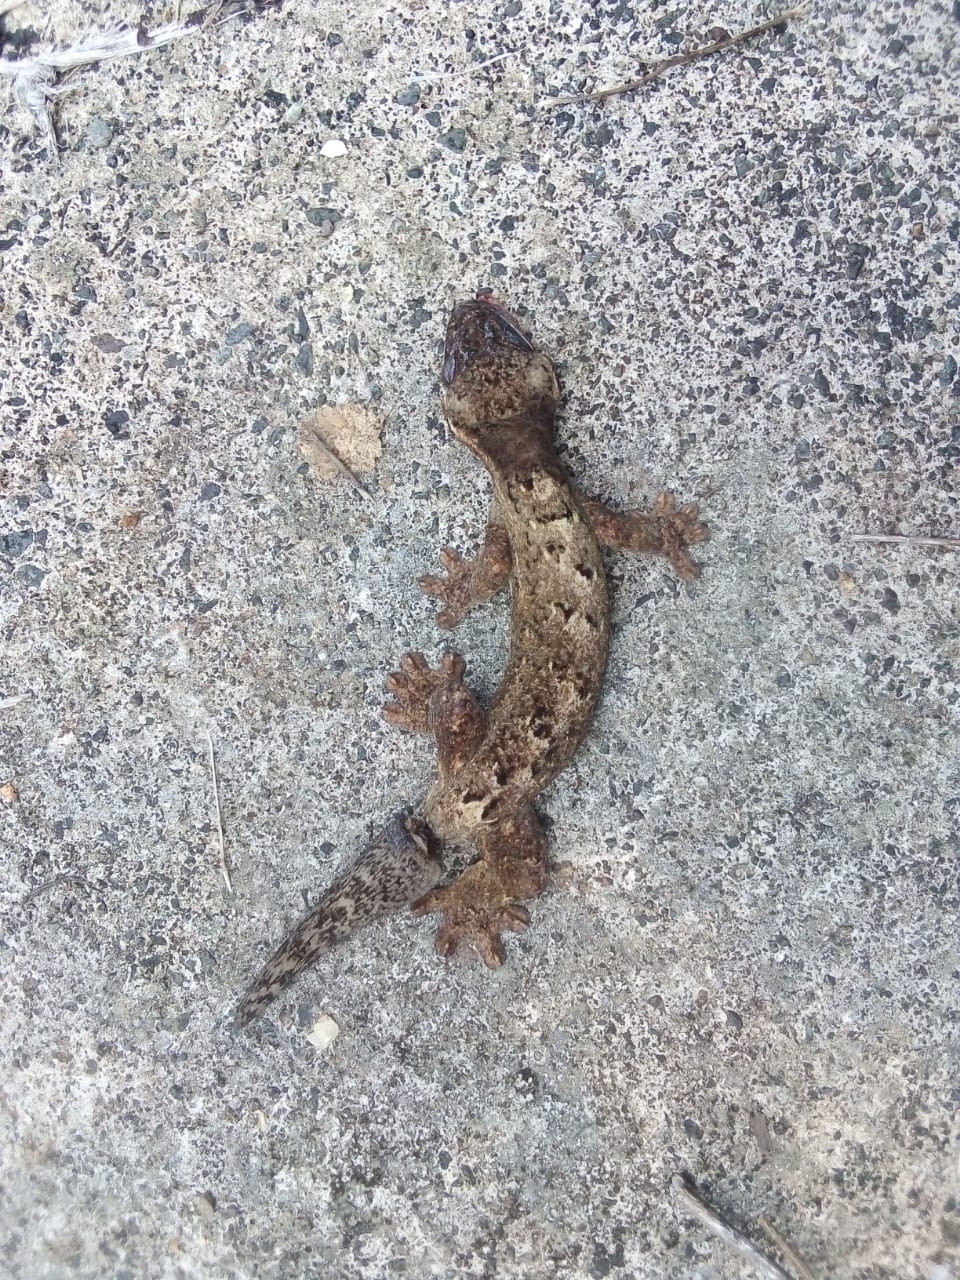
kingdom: Animalia
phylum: Chordata
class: Squamata
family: Phyllodactylidae
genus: Thecadactylus
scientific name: Thecadactylus rapicauda
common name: Turnip-tailed gecko
